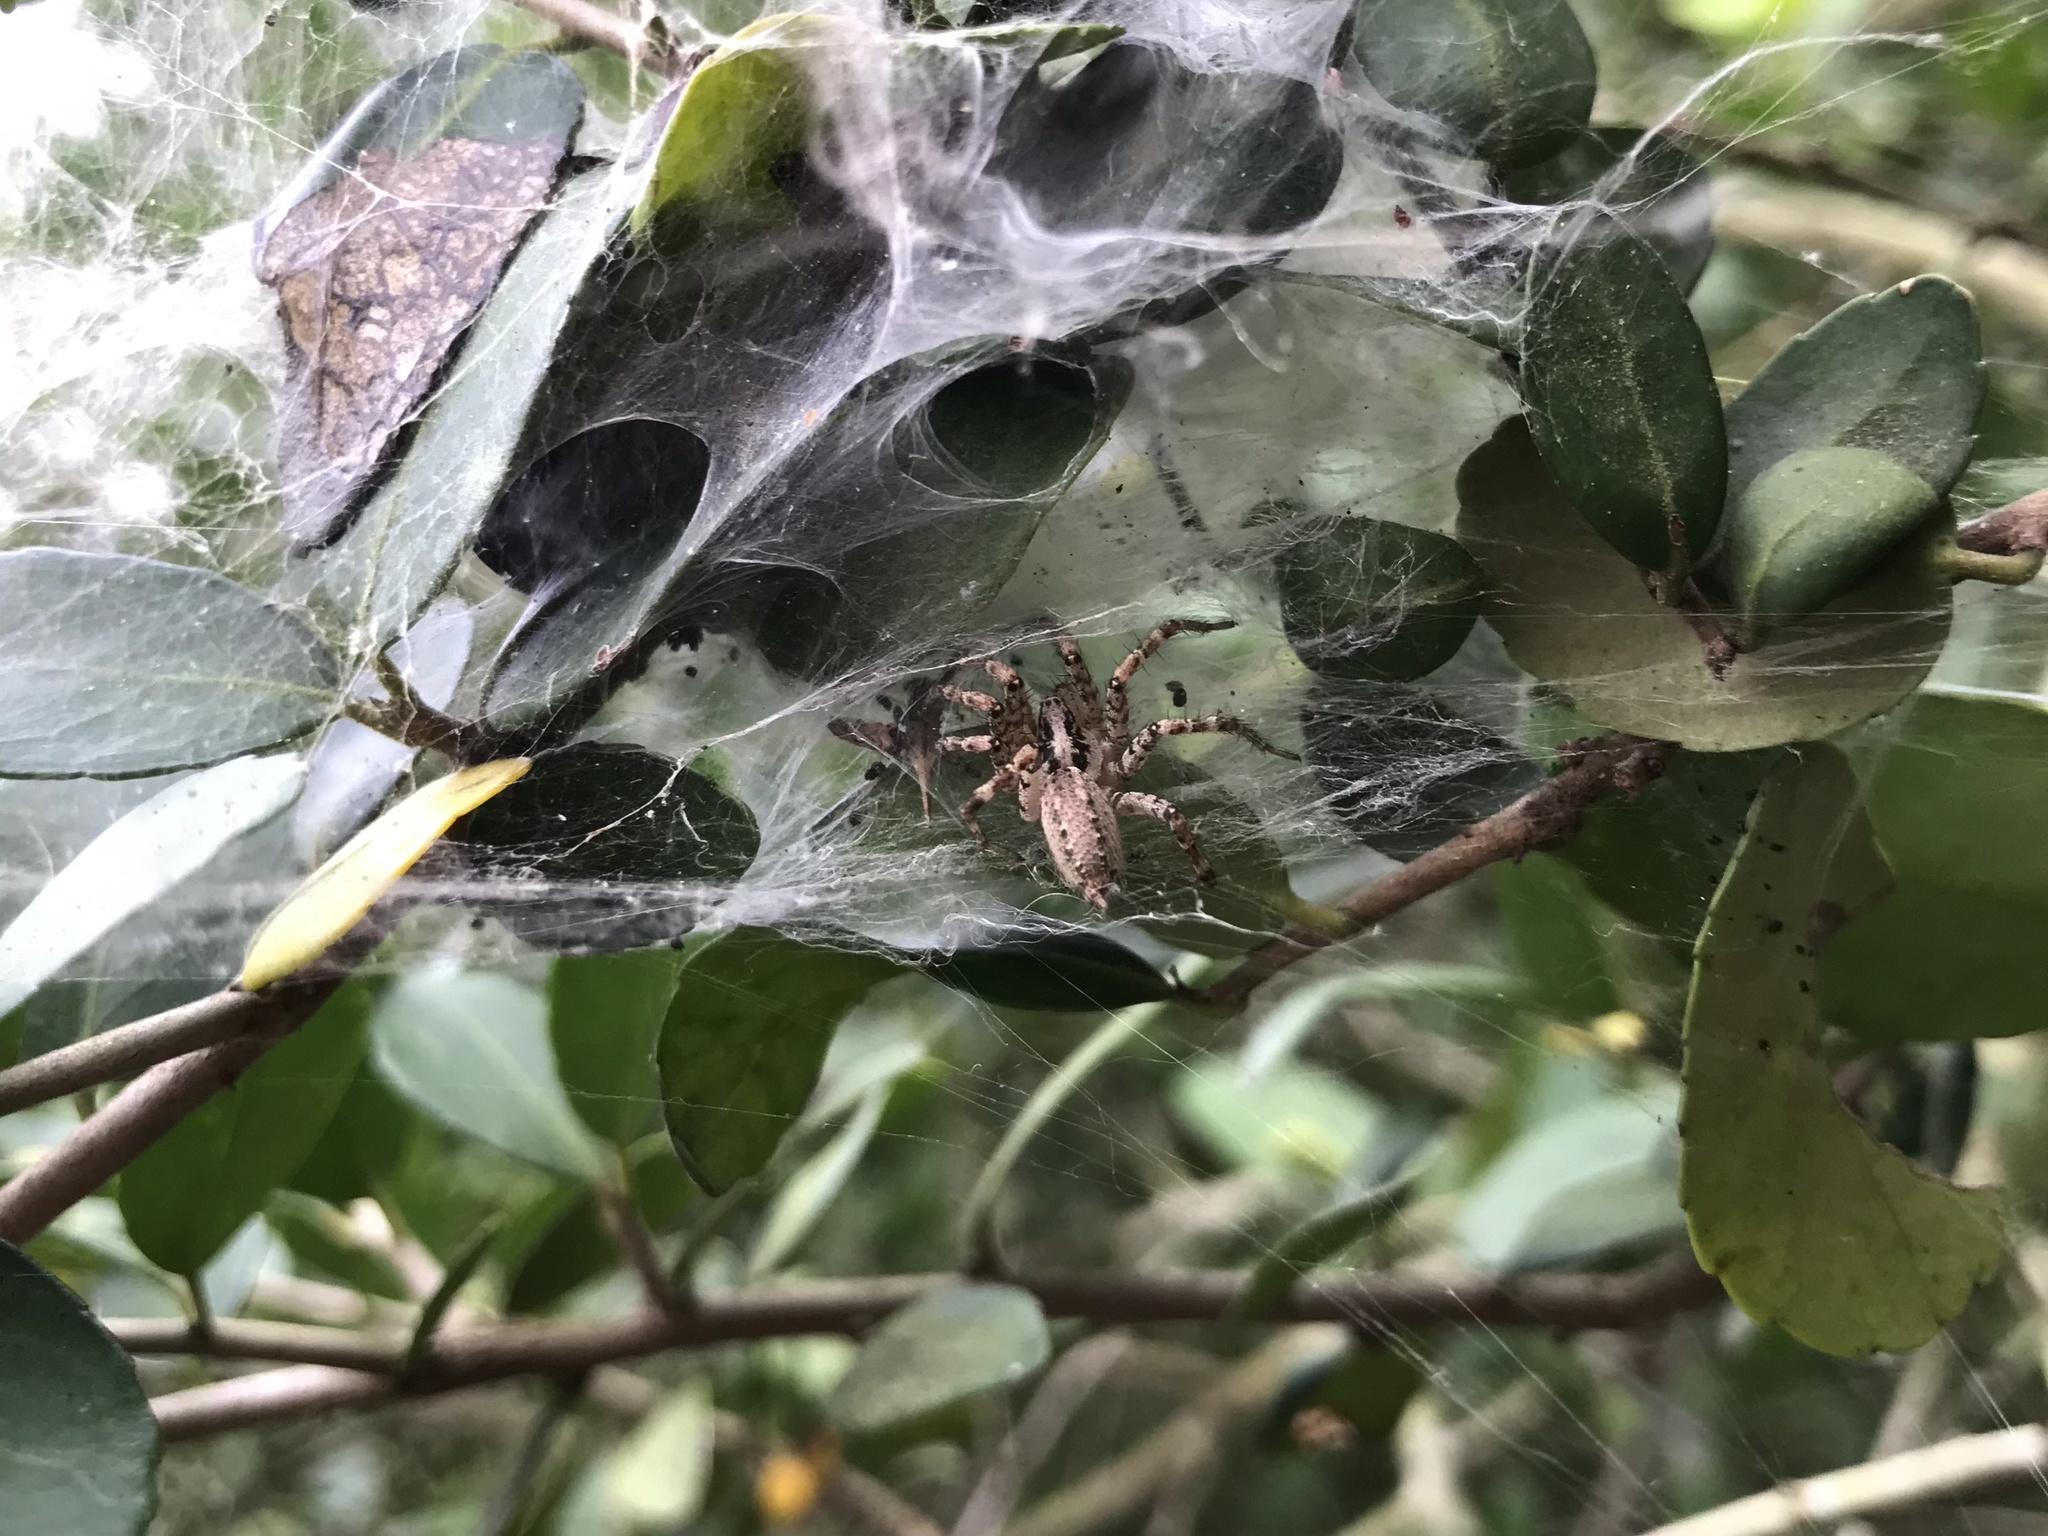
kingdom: Animalia
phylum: Arthropoda
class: Arachnida
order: Araneae
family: Agelenidae
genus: Barronopsis
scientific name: Barronopsis texana
